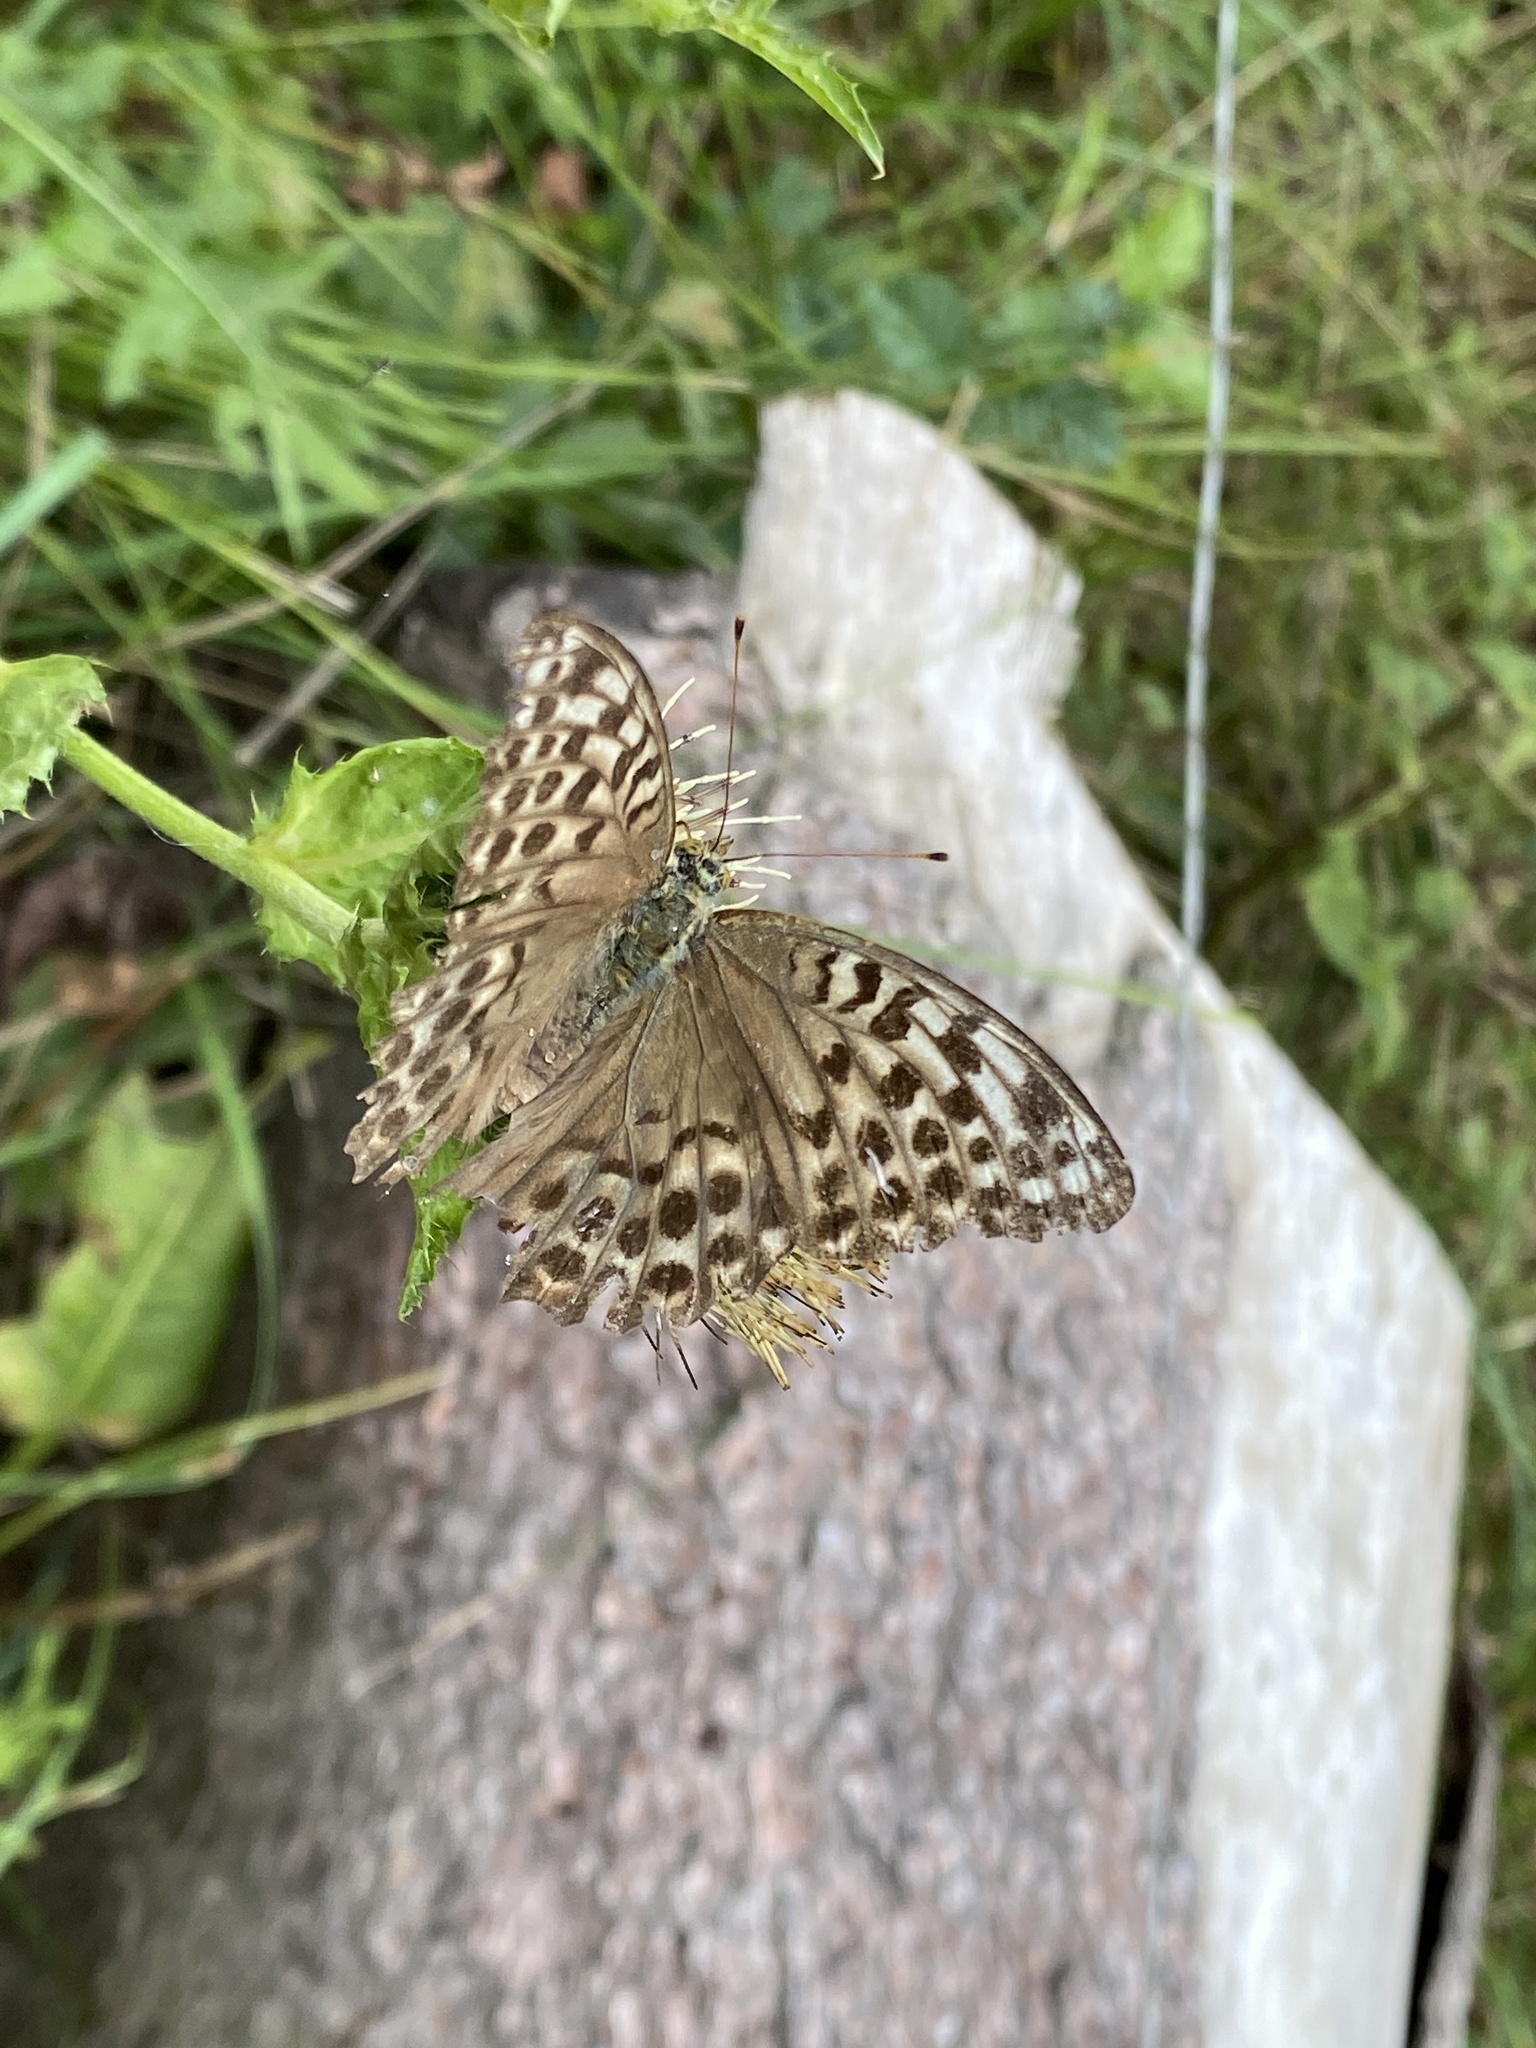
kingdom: Animalia
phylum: Arthropoda
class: Insecta
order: Lepidoptera
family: Nymphalidae
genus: Argynnis
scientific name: Argynnis paphia
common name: Silver-washed fritillary
